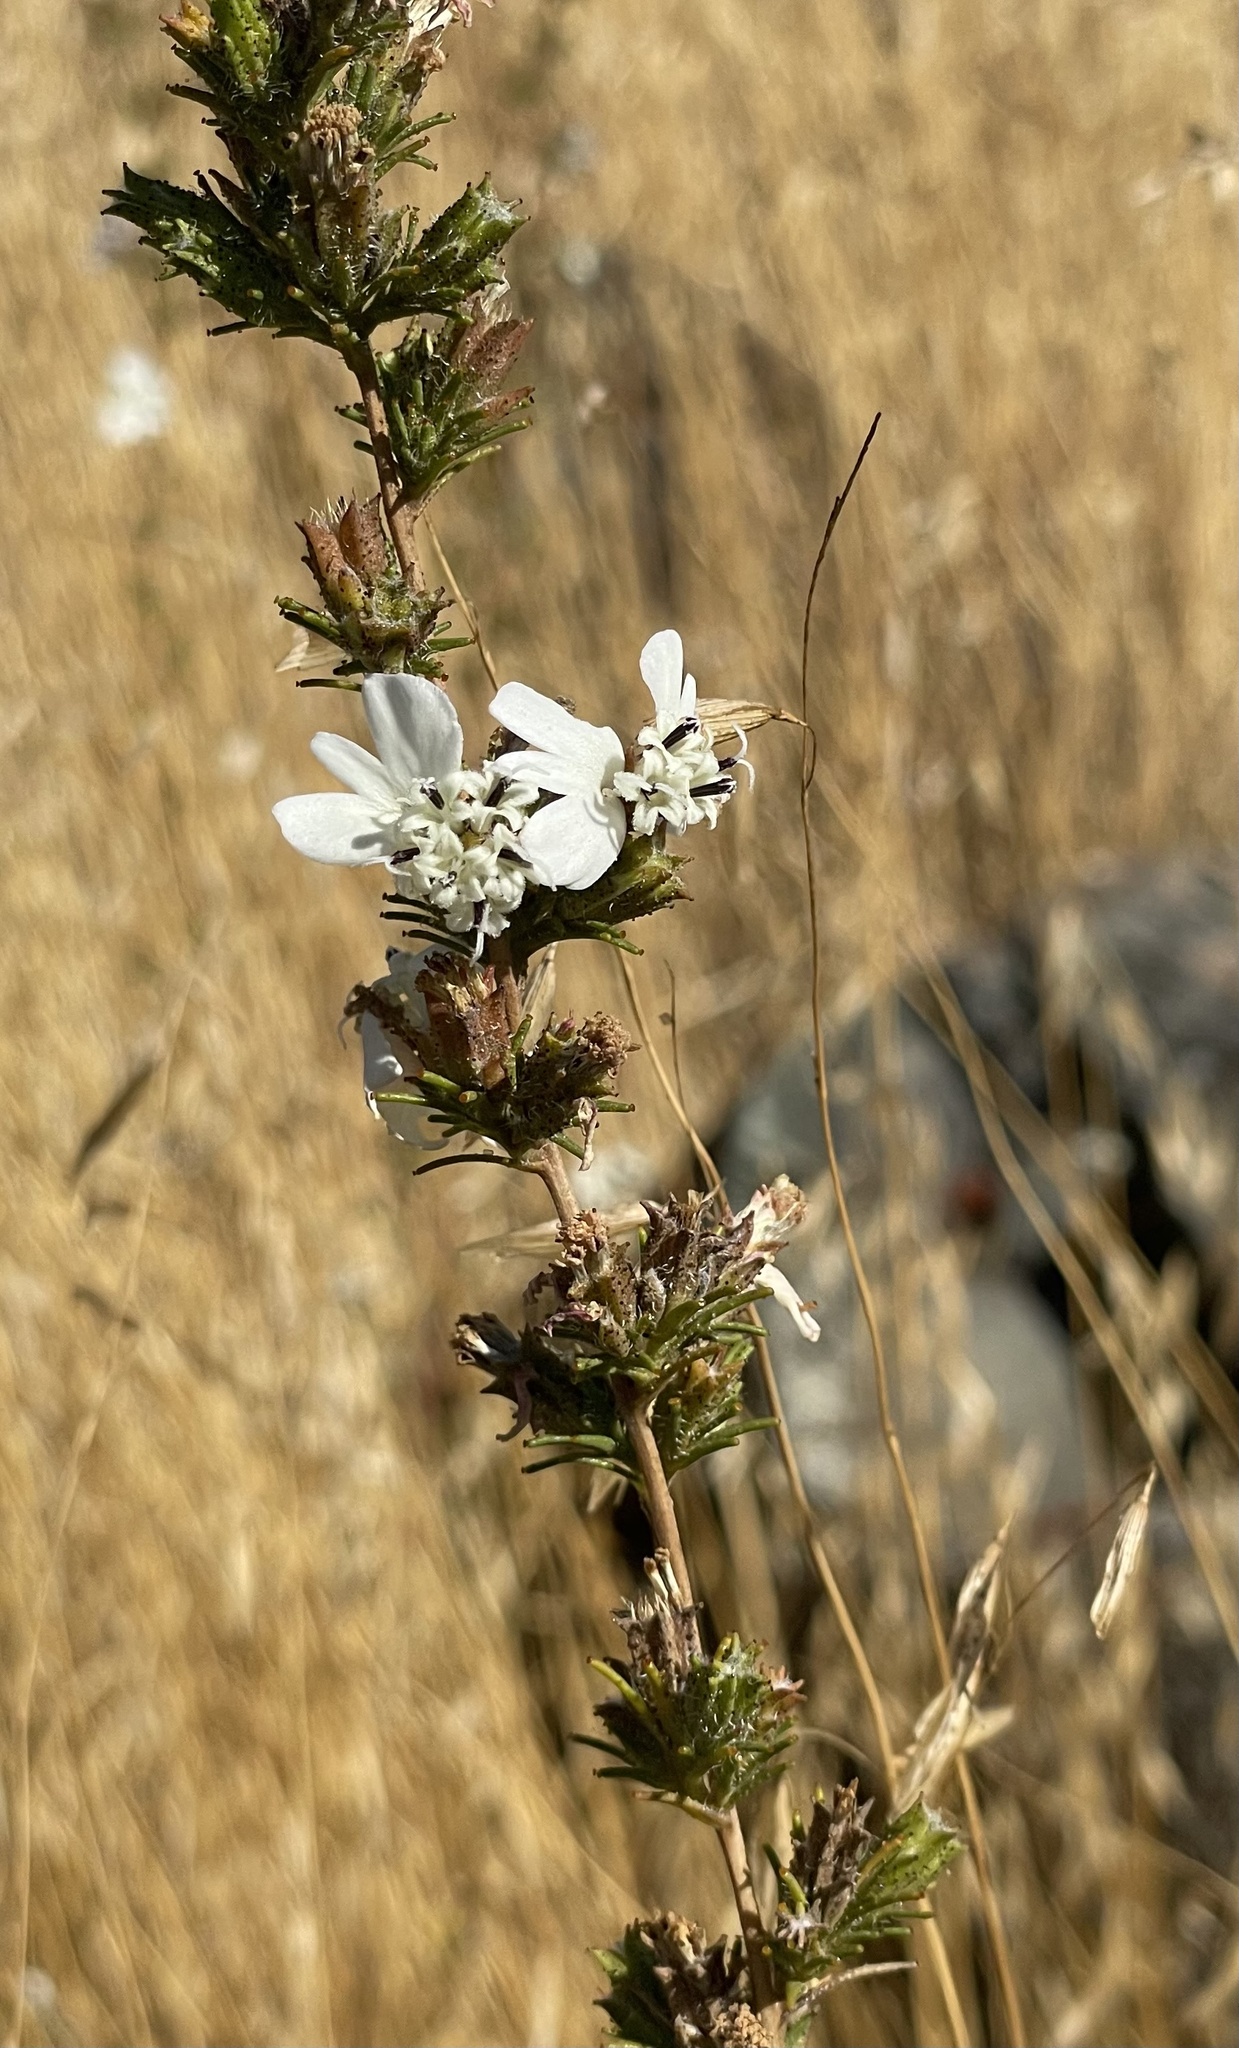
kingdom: Plantae
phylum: Tracheophyta
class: Magnoliopsida
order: Asterales
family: Asteraceae
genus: Calycadenia
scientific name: Calycadenia multiglandulosa
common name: Sticky calycadenia
